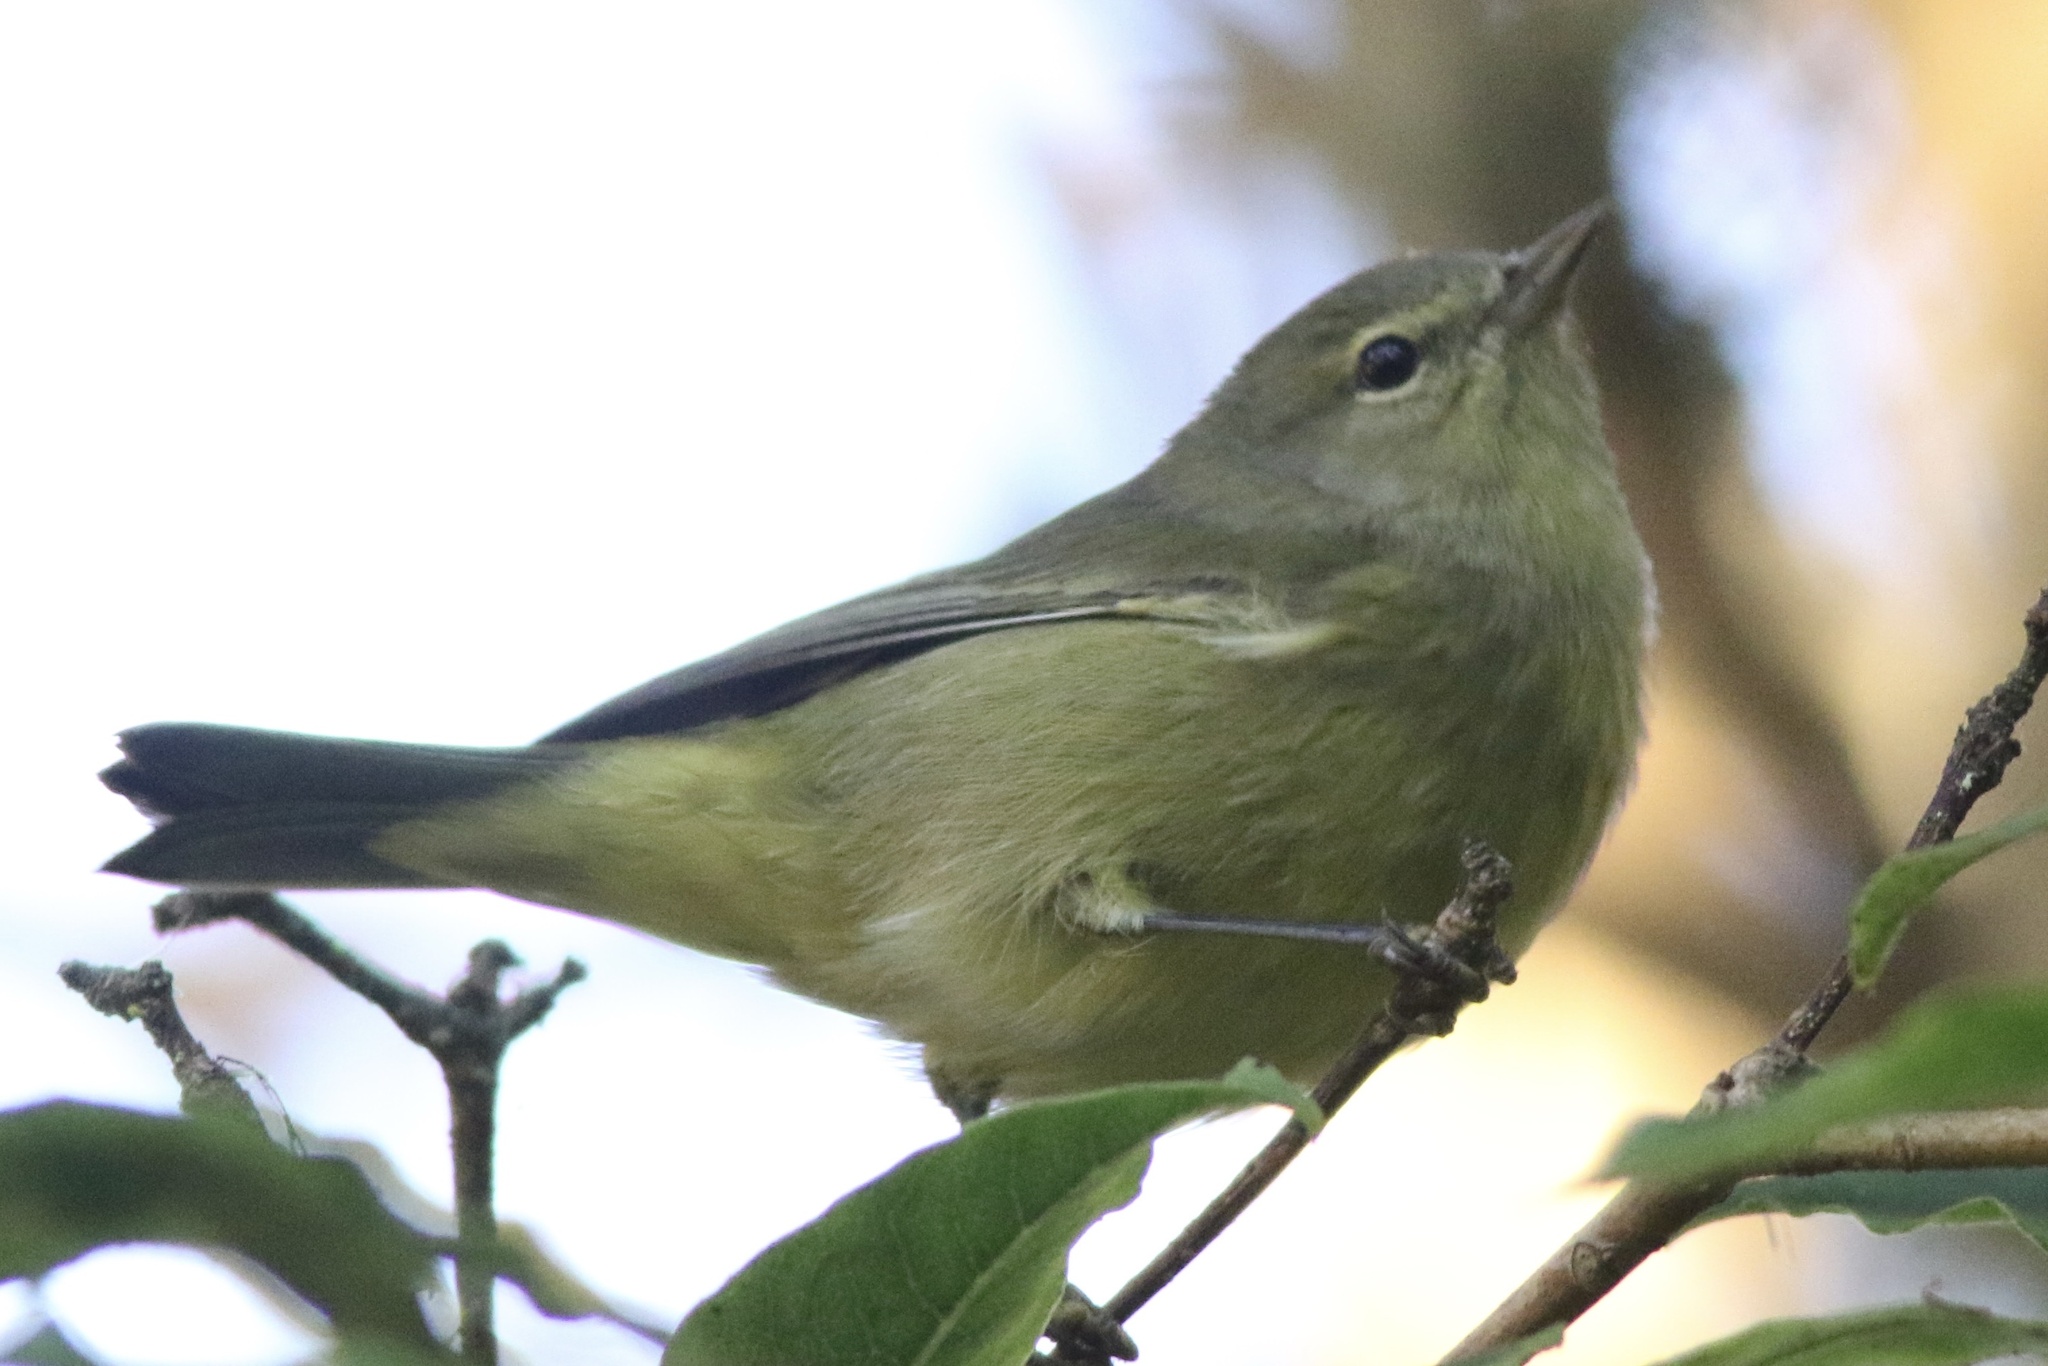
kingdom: Animalia
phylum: Chordata
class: Aves
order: Passeriformes
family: Parulidae
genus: Leiothlypis
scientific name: Leiothlypis celata
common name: Orange-crowned warbler
